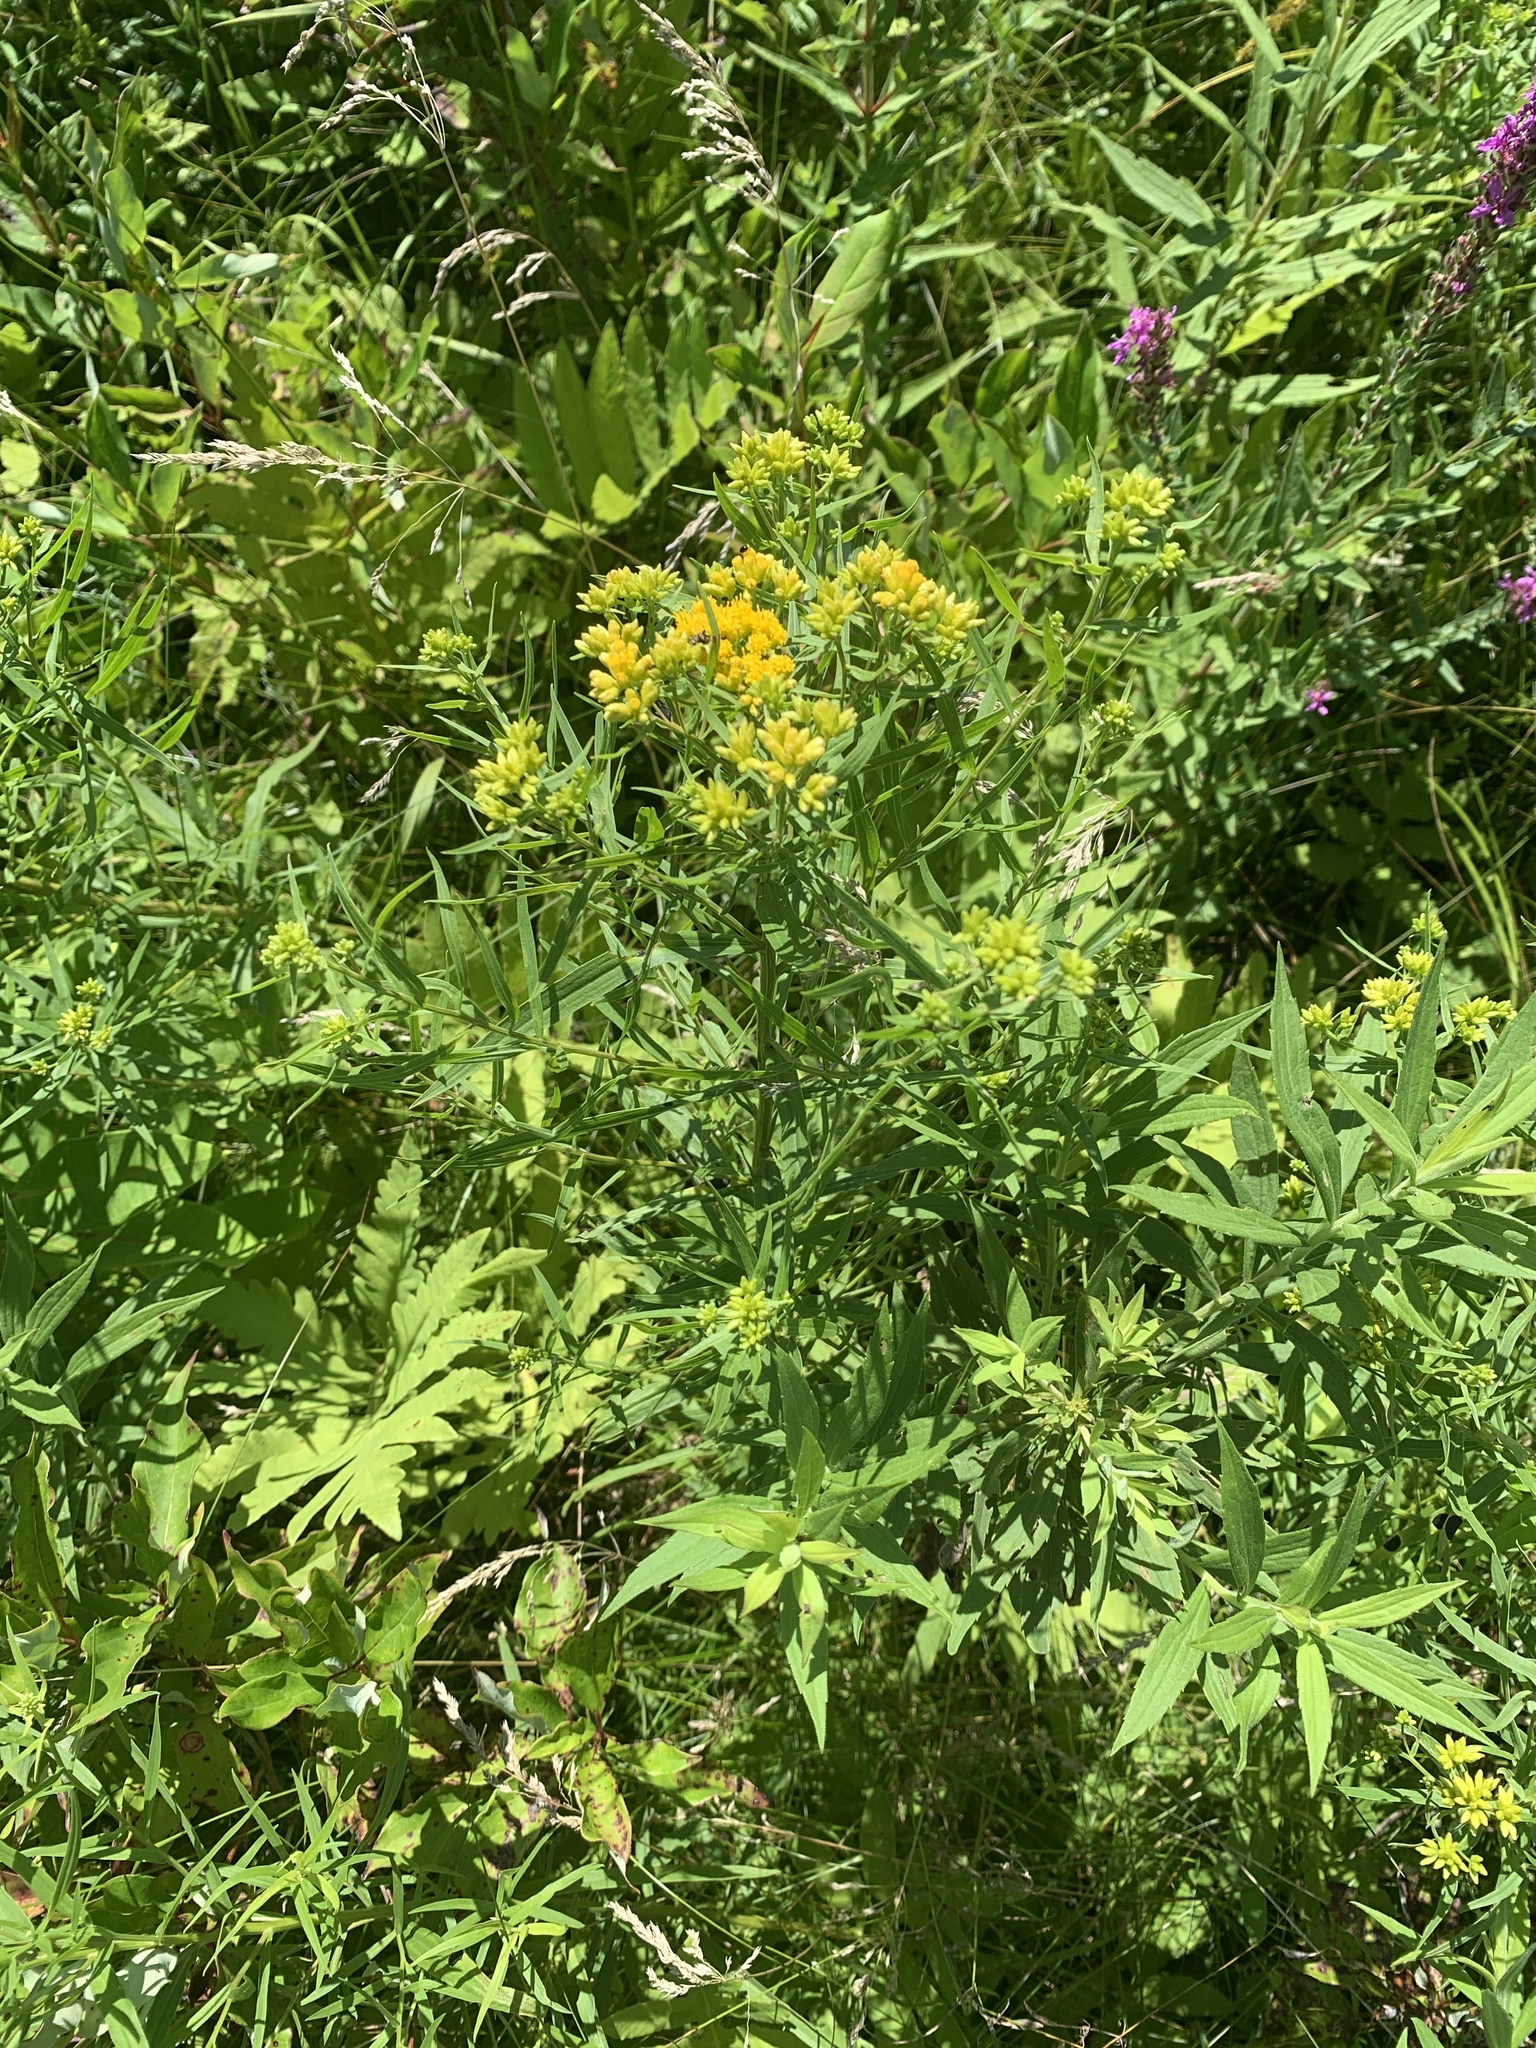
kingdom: Plantae
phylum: Tracheophyta
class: Magnoliopsida
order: Asterales
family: Asteraceae
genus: Euthamia
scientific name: Euthamia graminifolia
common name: Common goldentop
